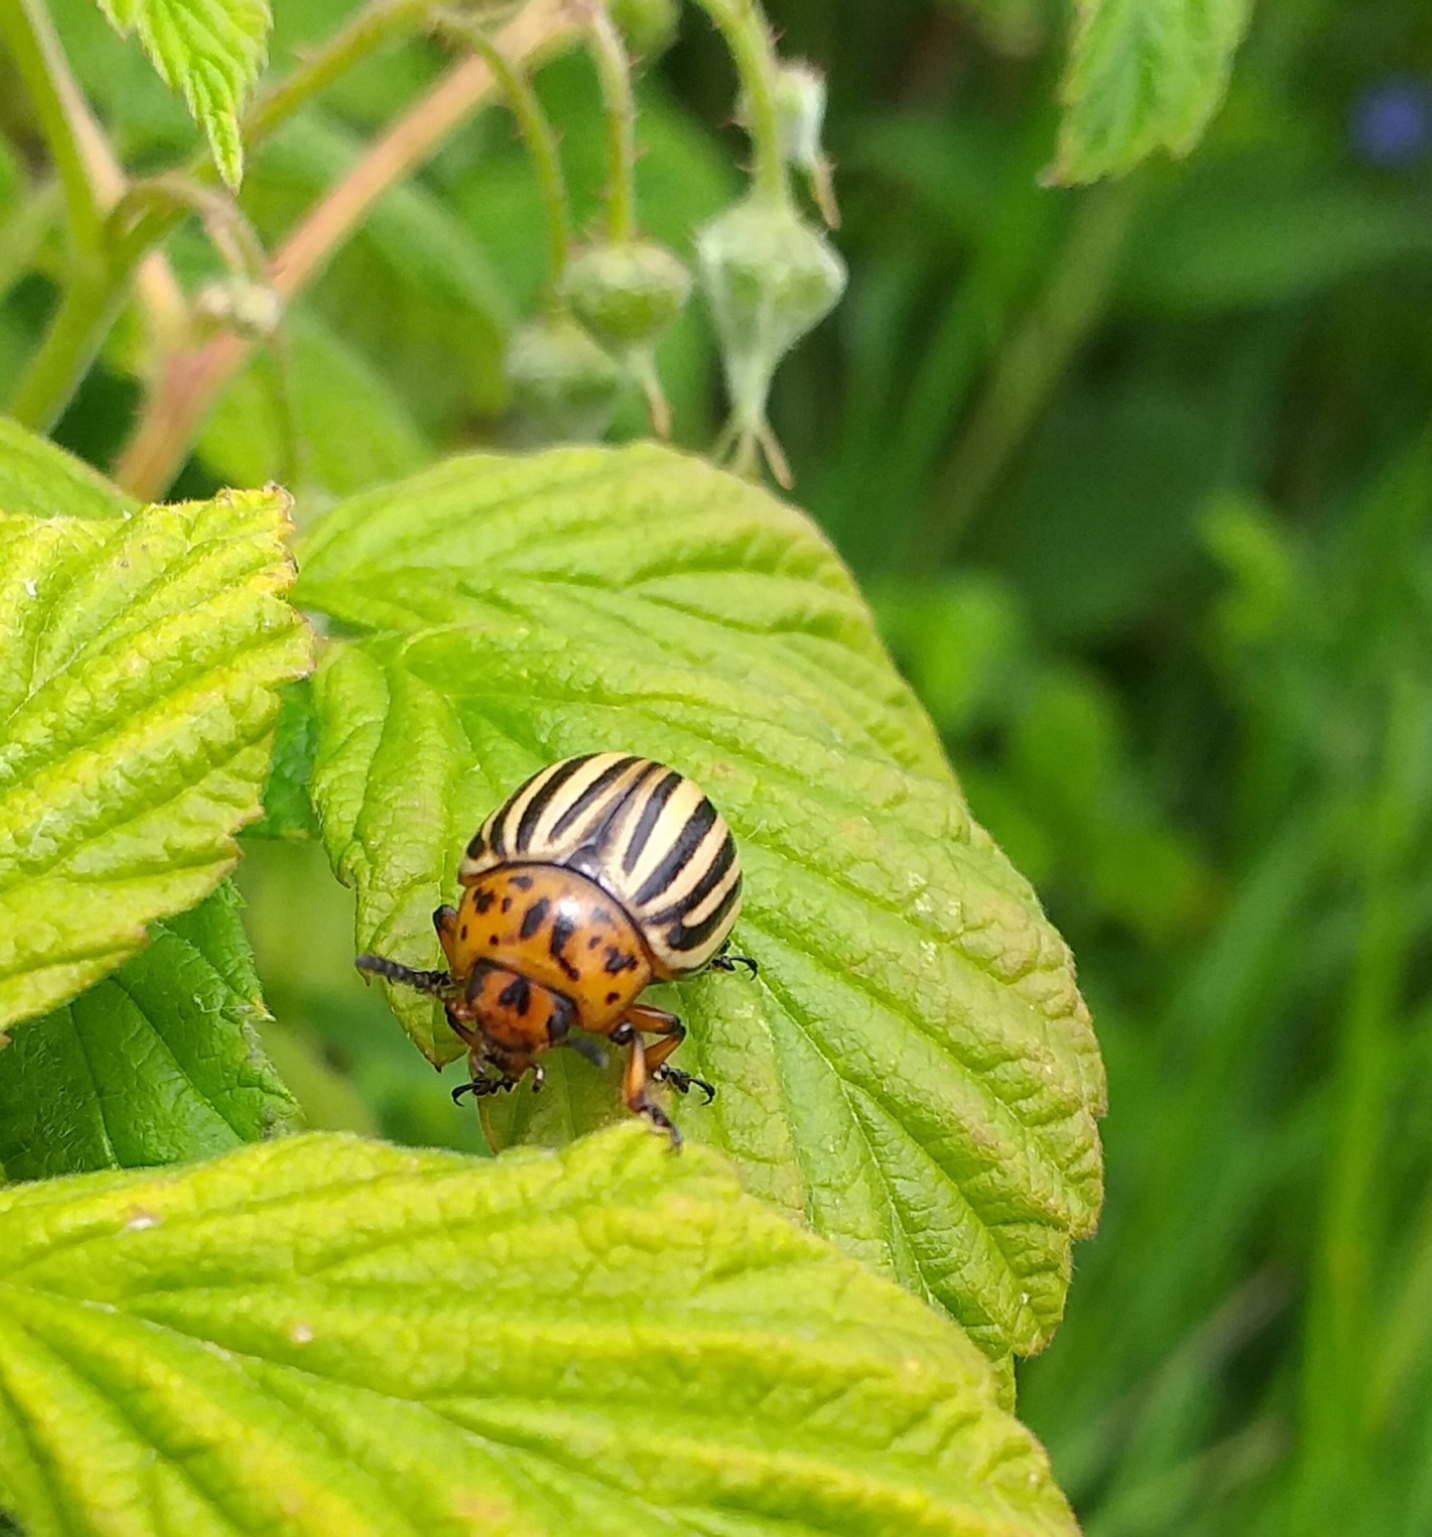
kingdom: Animalia
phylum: Arthropoda
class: Insecta
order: Coleoptera
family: Chrysomelidae
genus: Leptinotarsa
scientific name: Leptinotarsa decemlineata
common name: Colorado potato beetle
